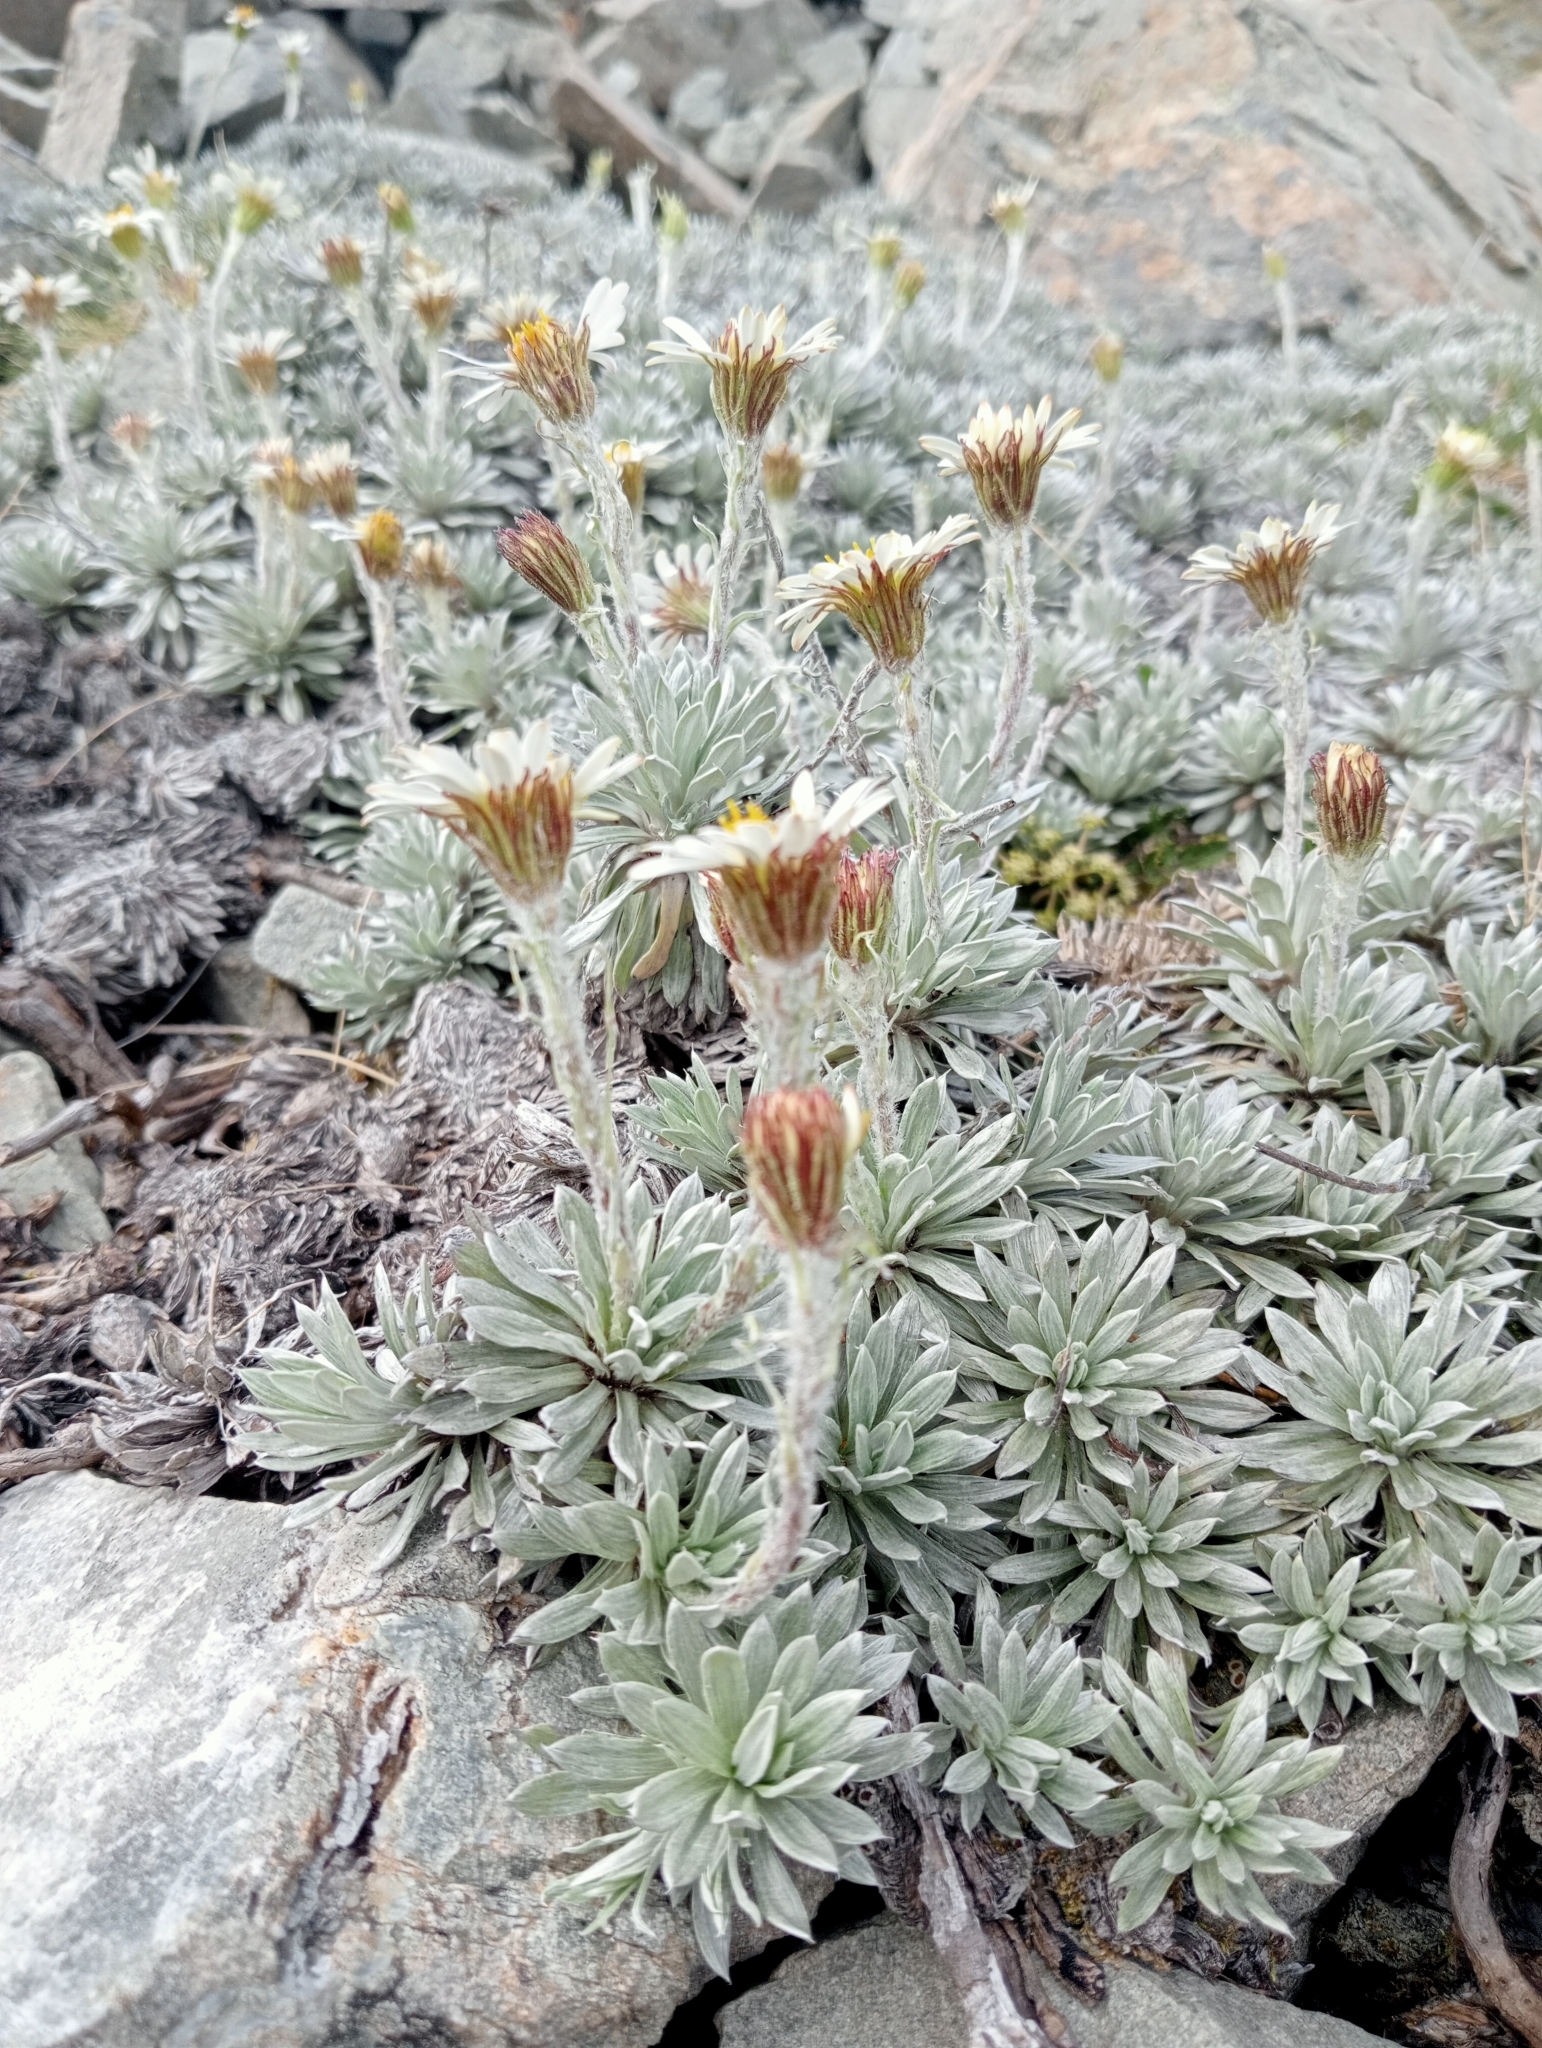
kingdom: Plantae
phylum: Tracheophyta
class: Magnoliopsida
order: Asterales
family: Asteraceae
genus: Celmisia
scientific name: Celmisia hectorii
